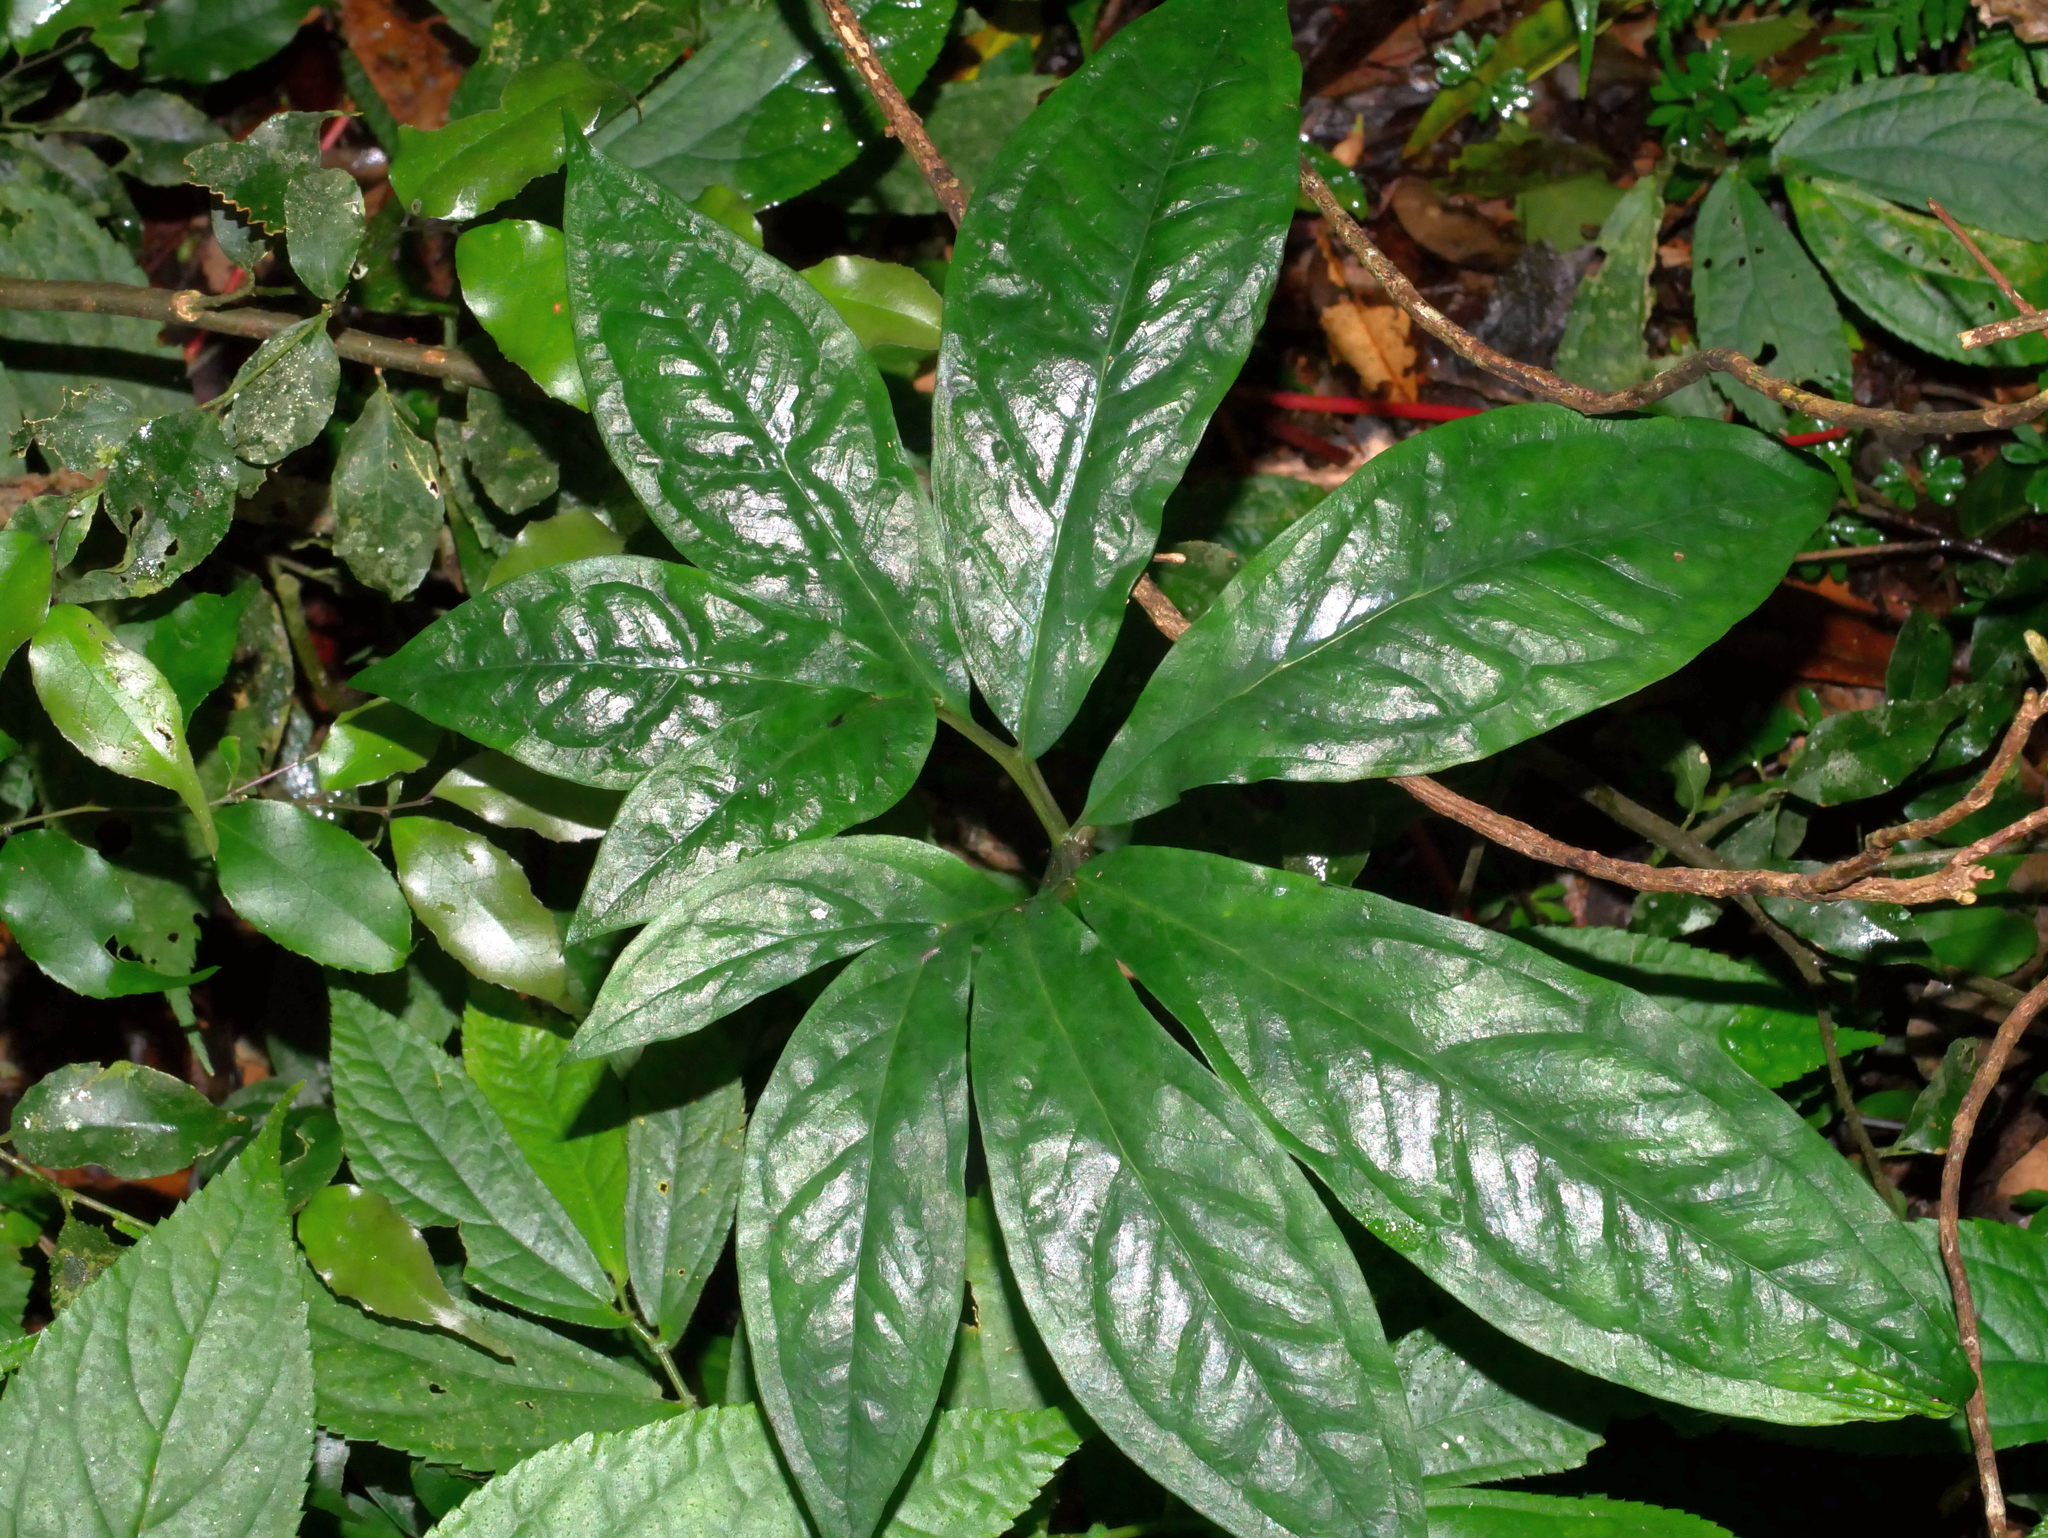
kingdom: Plantae
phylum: Tracheophyta
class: Liliopsida
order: Alismatales
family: Araceae
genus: Arisaema
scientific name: Arisaema thunbergii
